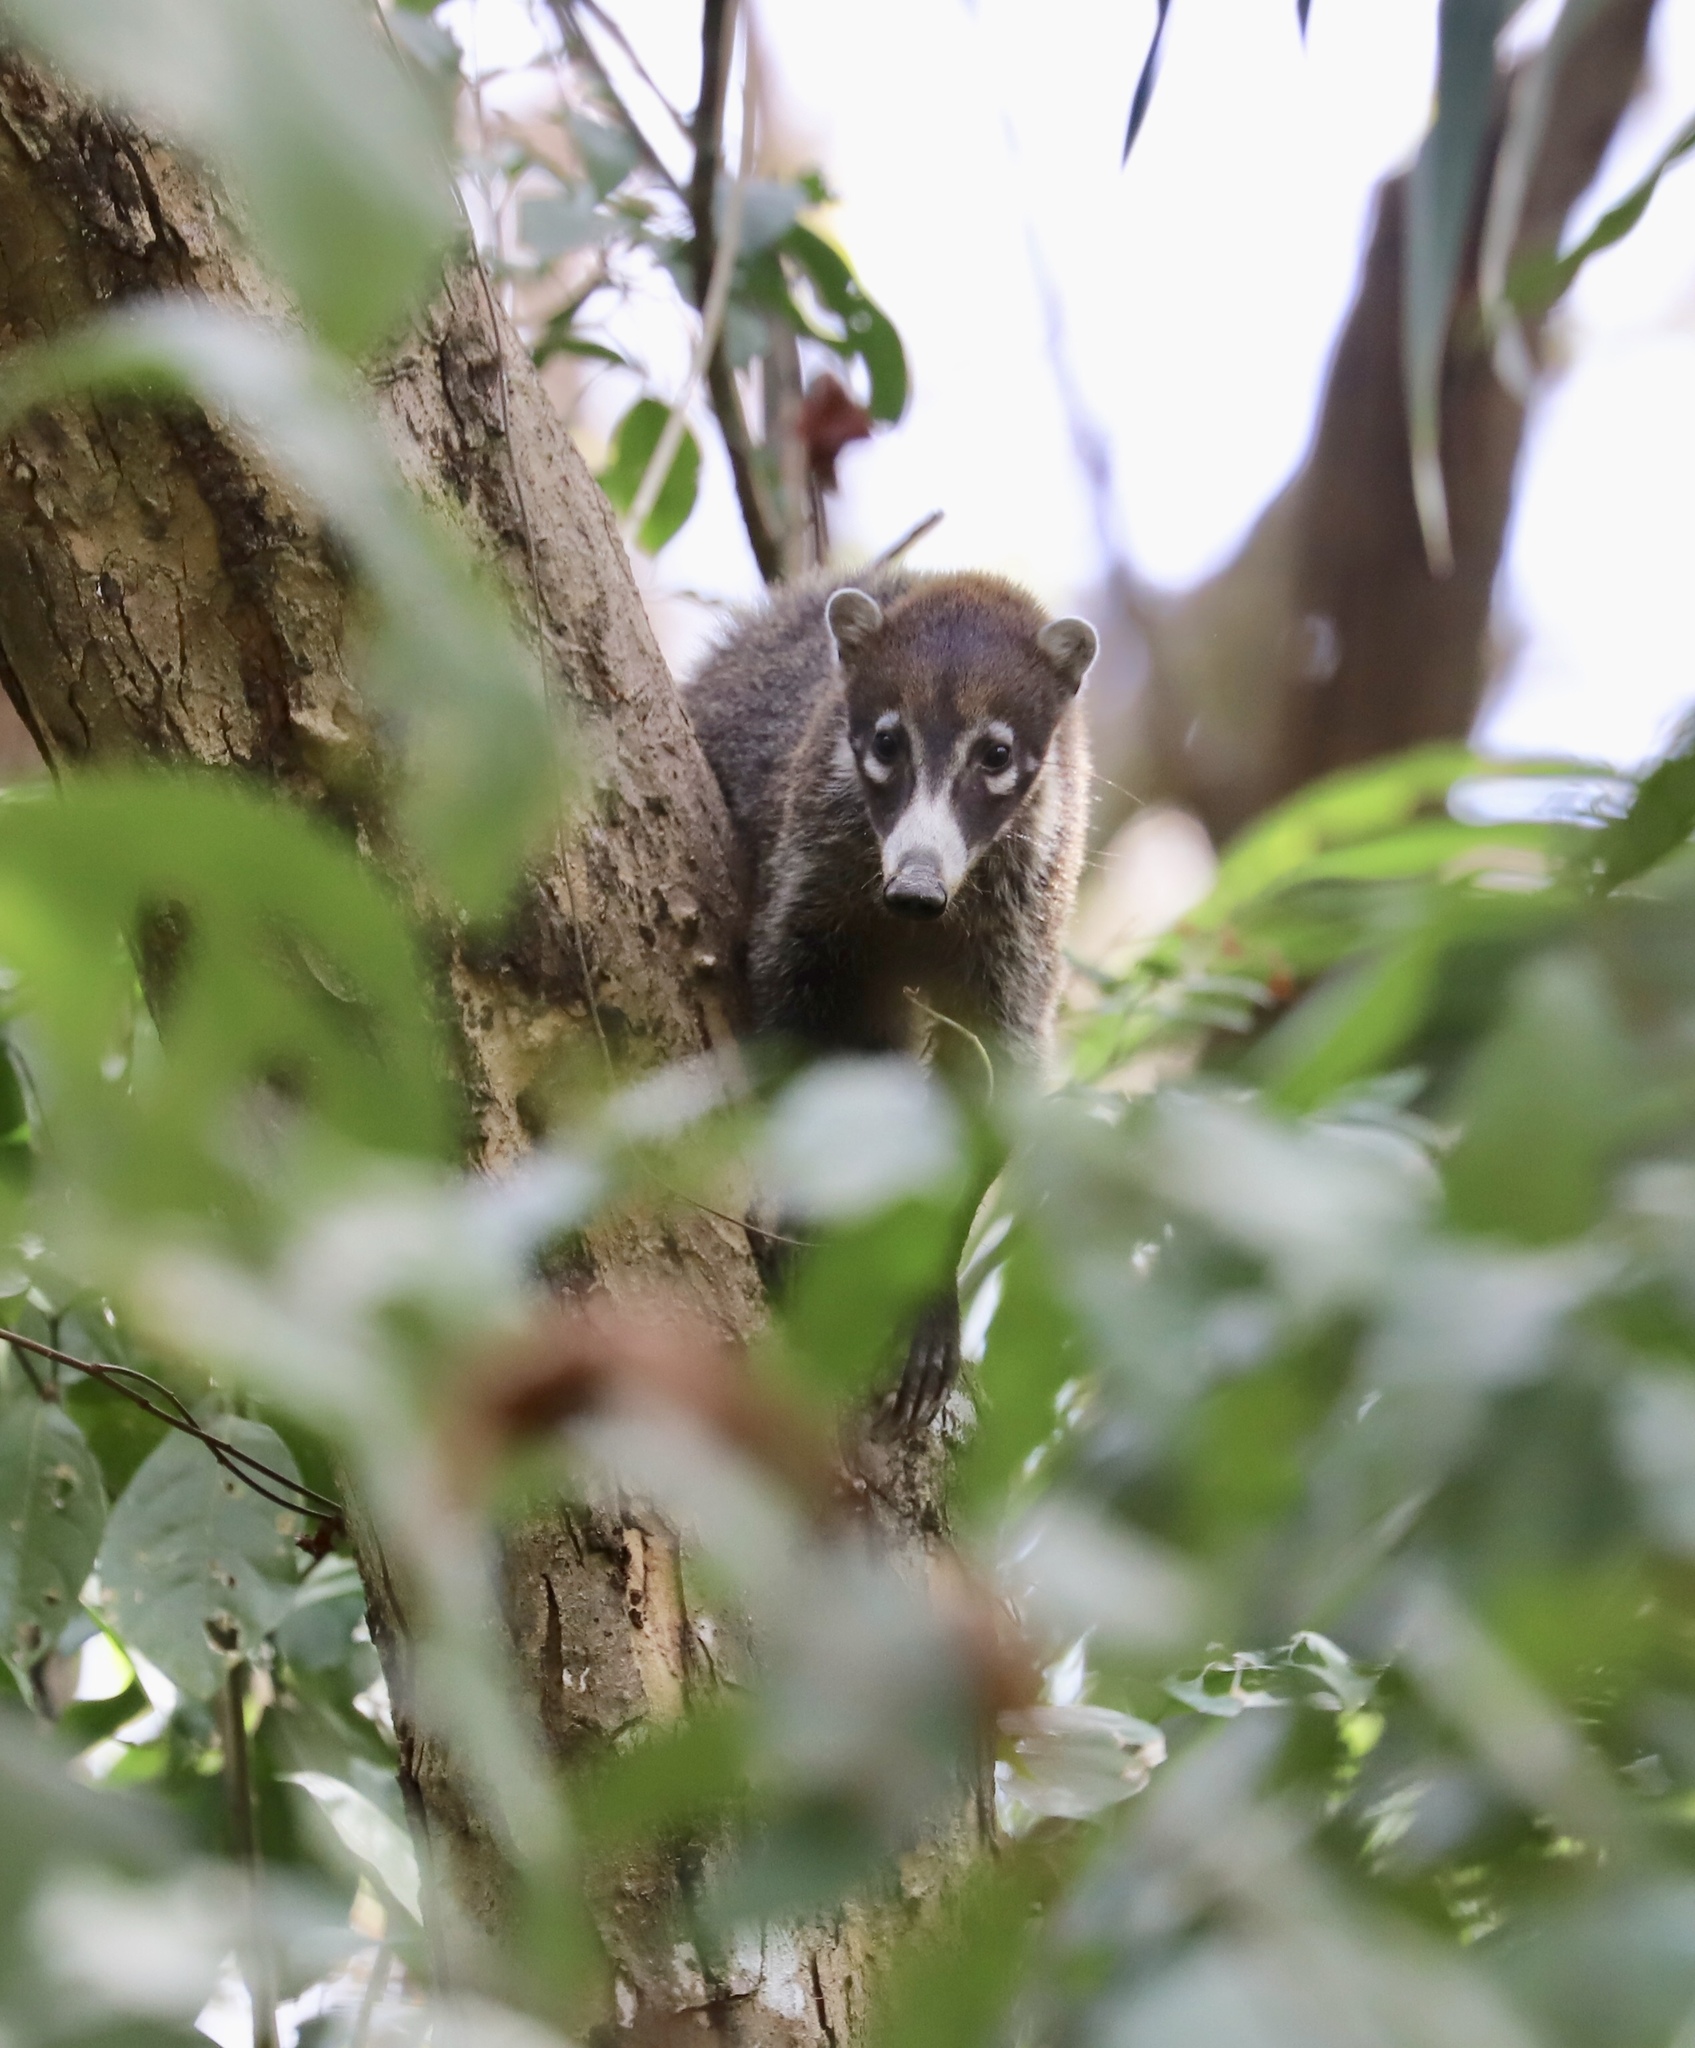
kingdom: Animalia
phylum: Chordata
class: Mammalia
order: Carnivora
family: Procyonidae
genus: Nasua
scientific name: Nasua narica
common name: White-nosed coati
